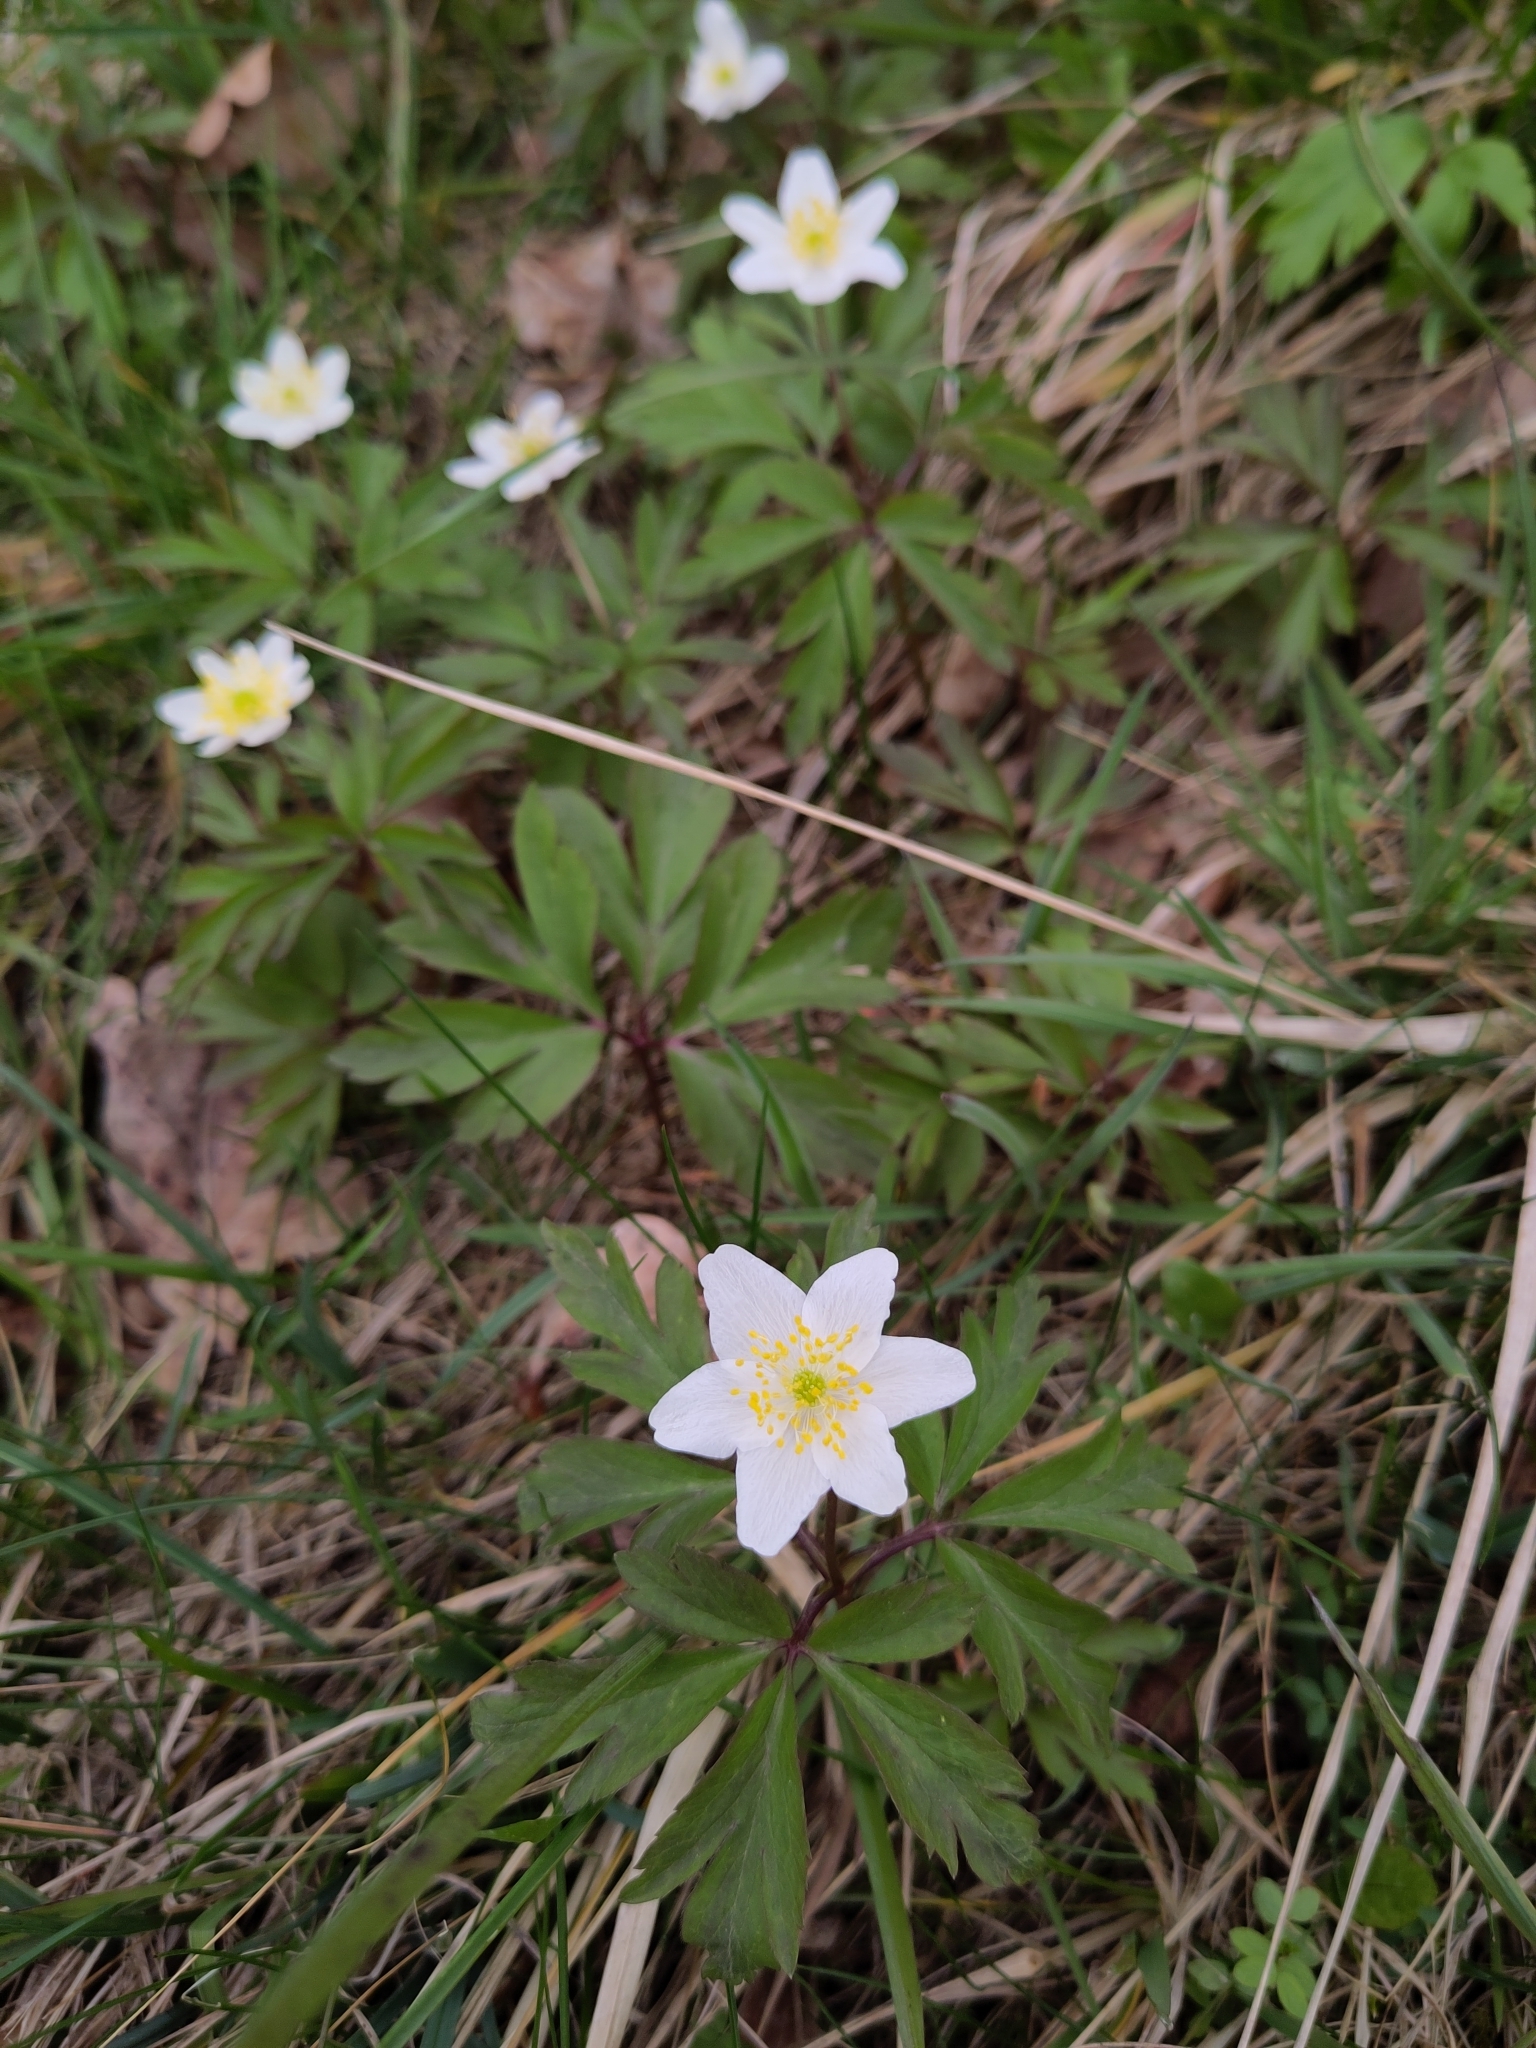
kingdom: Plantae
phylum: Tracheophyta
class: Magnoliopsida
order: Ranunculales
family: Ranunculaceae
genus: Anemone
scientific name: Anemone nemorosa
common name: Wood anemone
